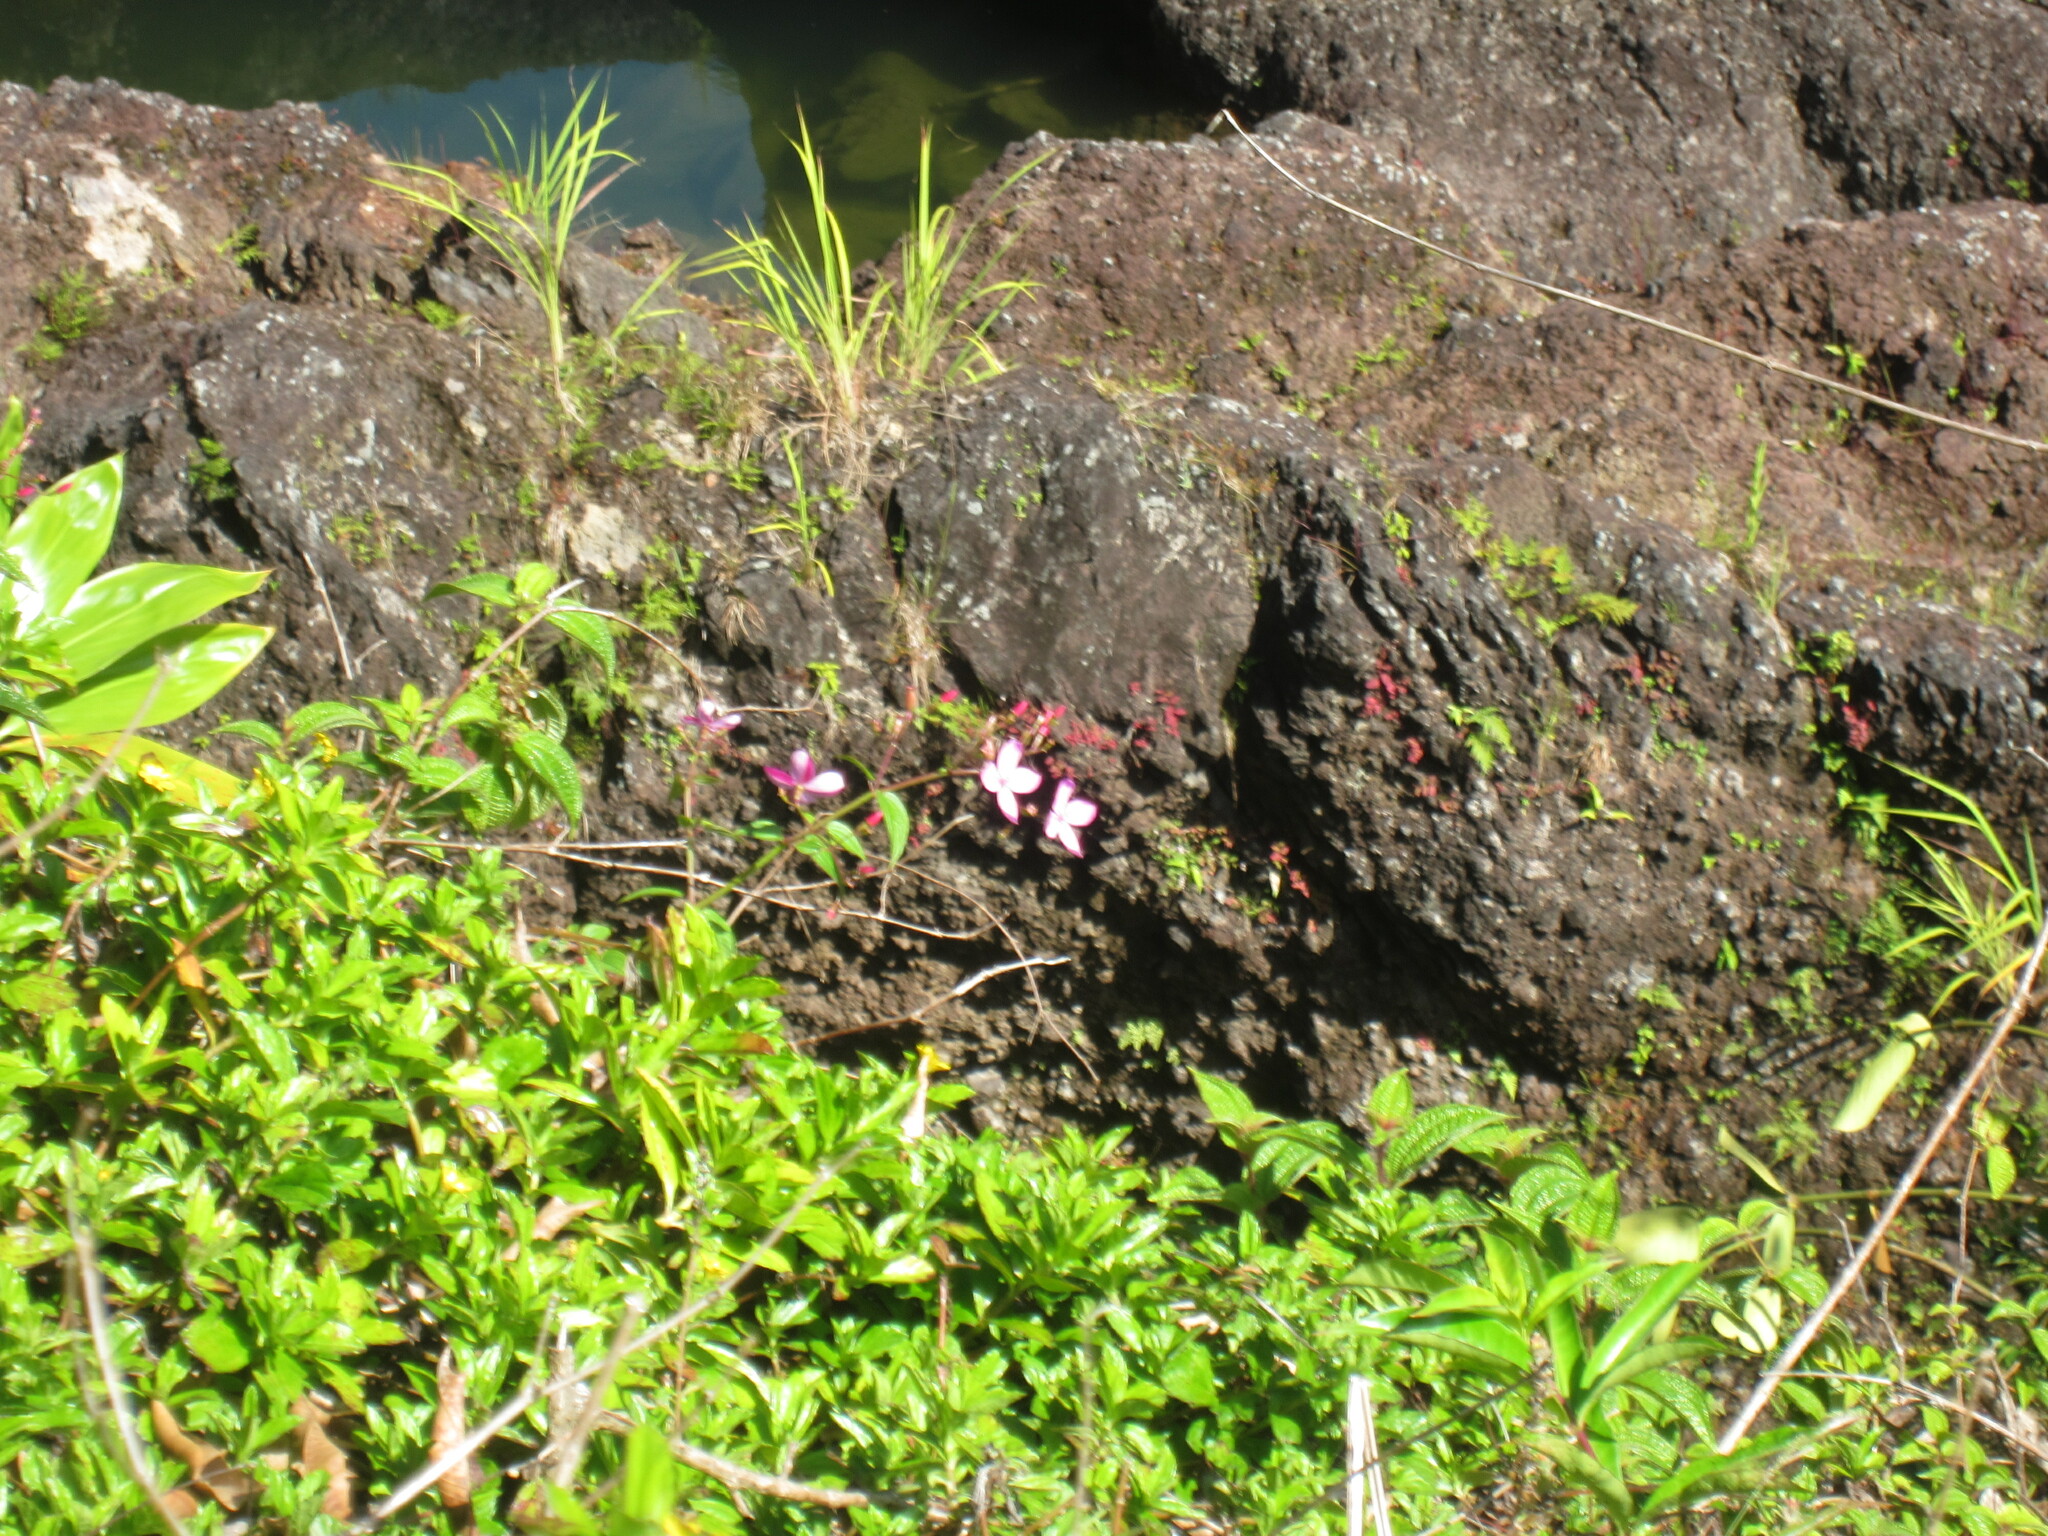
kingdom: Plantae
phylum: Tracheophyta
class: Magnoliopsida
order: Myrtales
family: Melastomataceae
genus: Arthrostemma
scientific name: Arthrostemma ciliatum
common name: Everblooming eavender
